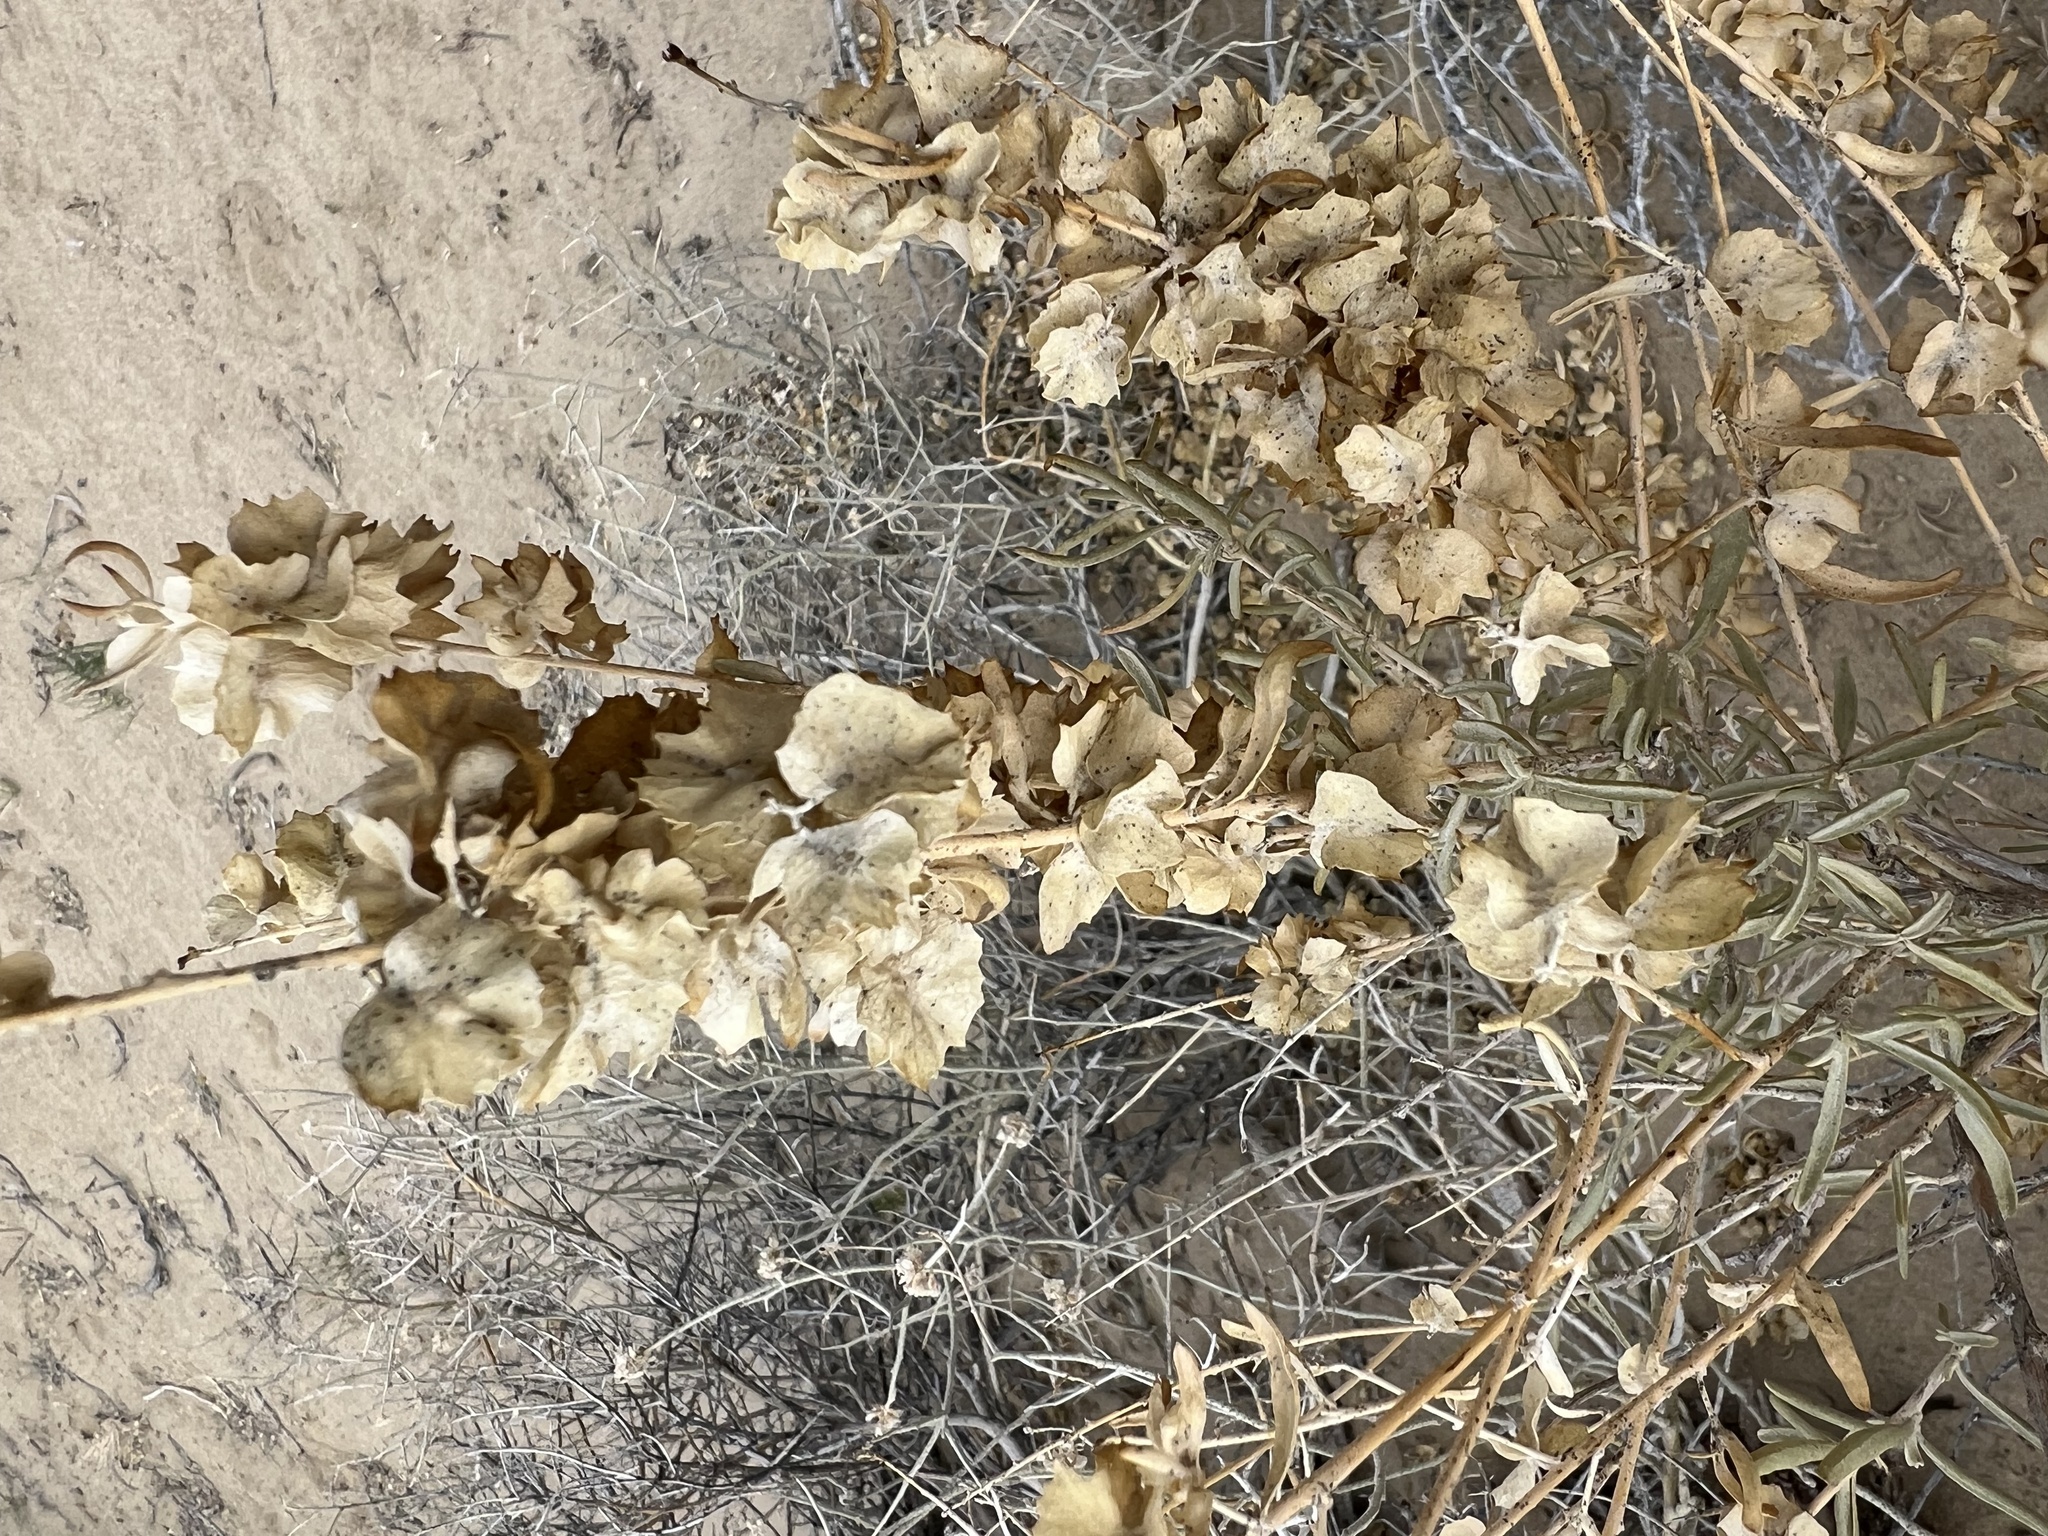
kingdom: Plantae
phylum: Tracheophyta
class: Magnoliopsida
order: Caryophyllales
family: Amaranthaceae
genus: Atriplex
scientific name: Atriplex canescens
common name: Four-wing saltbush
